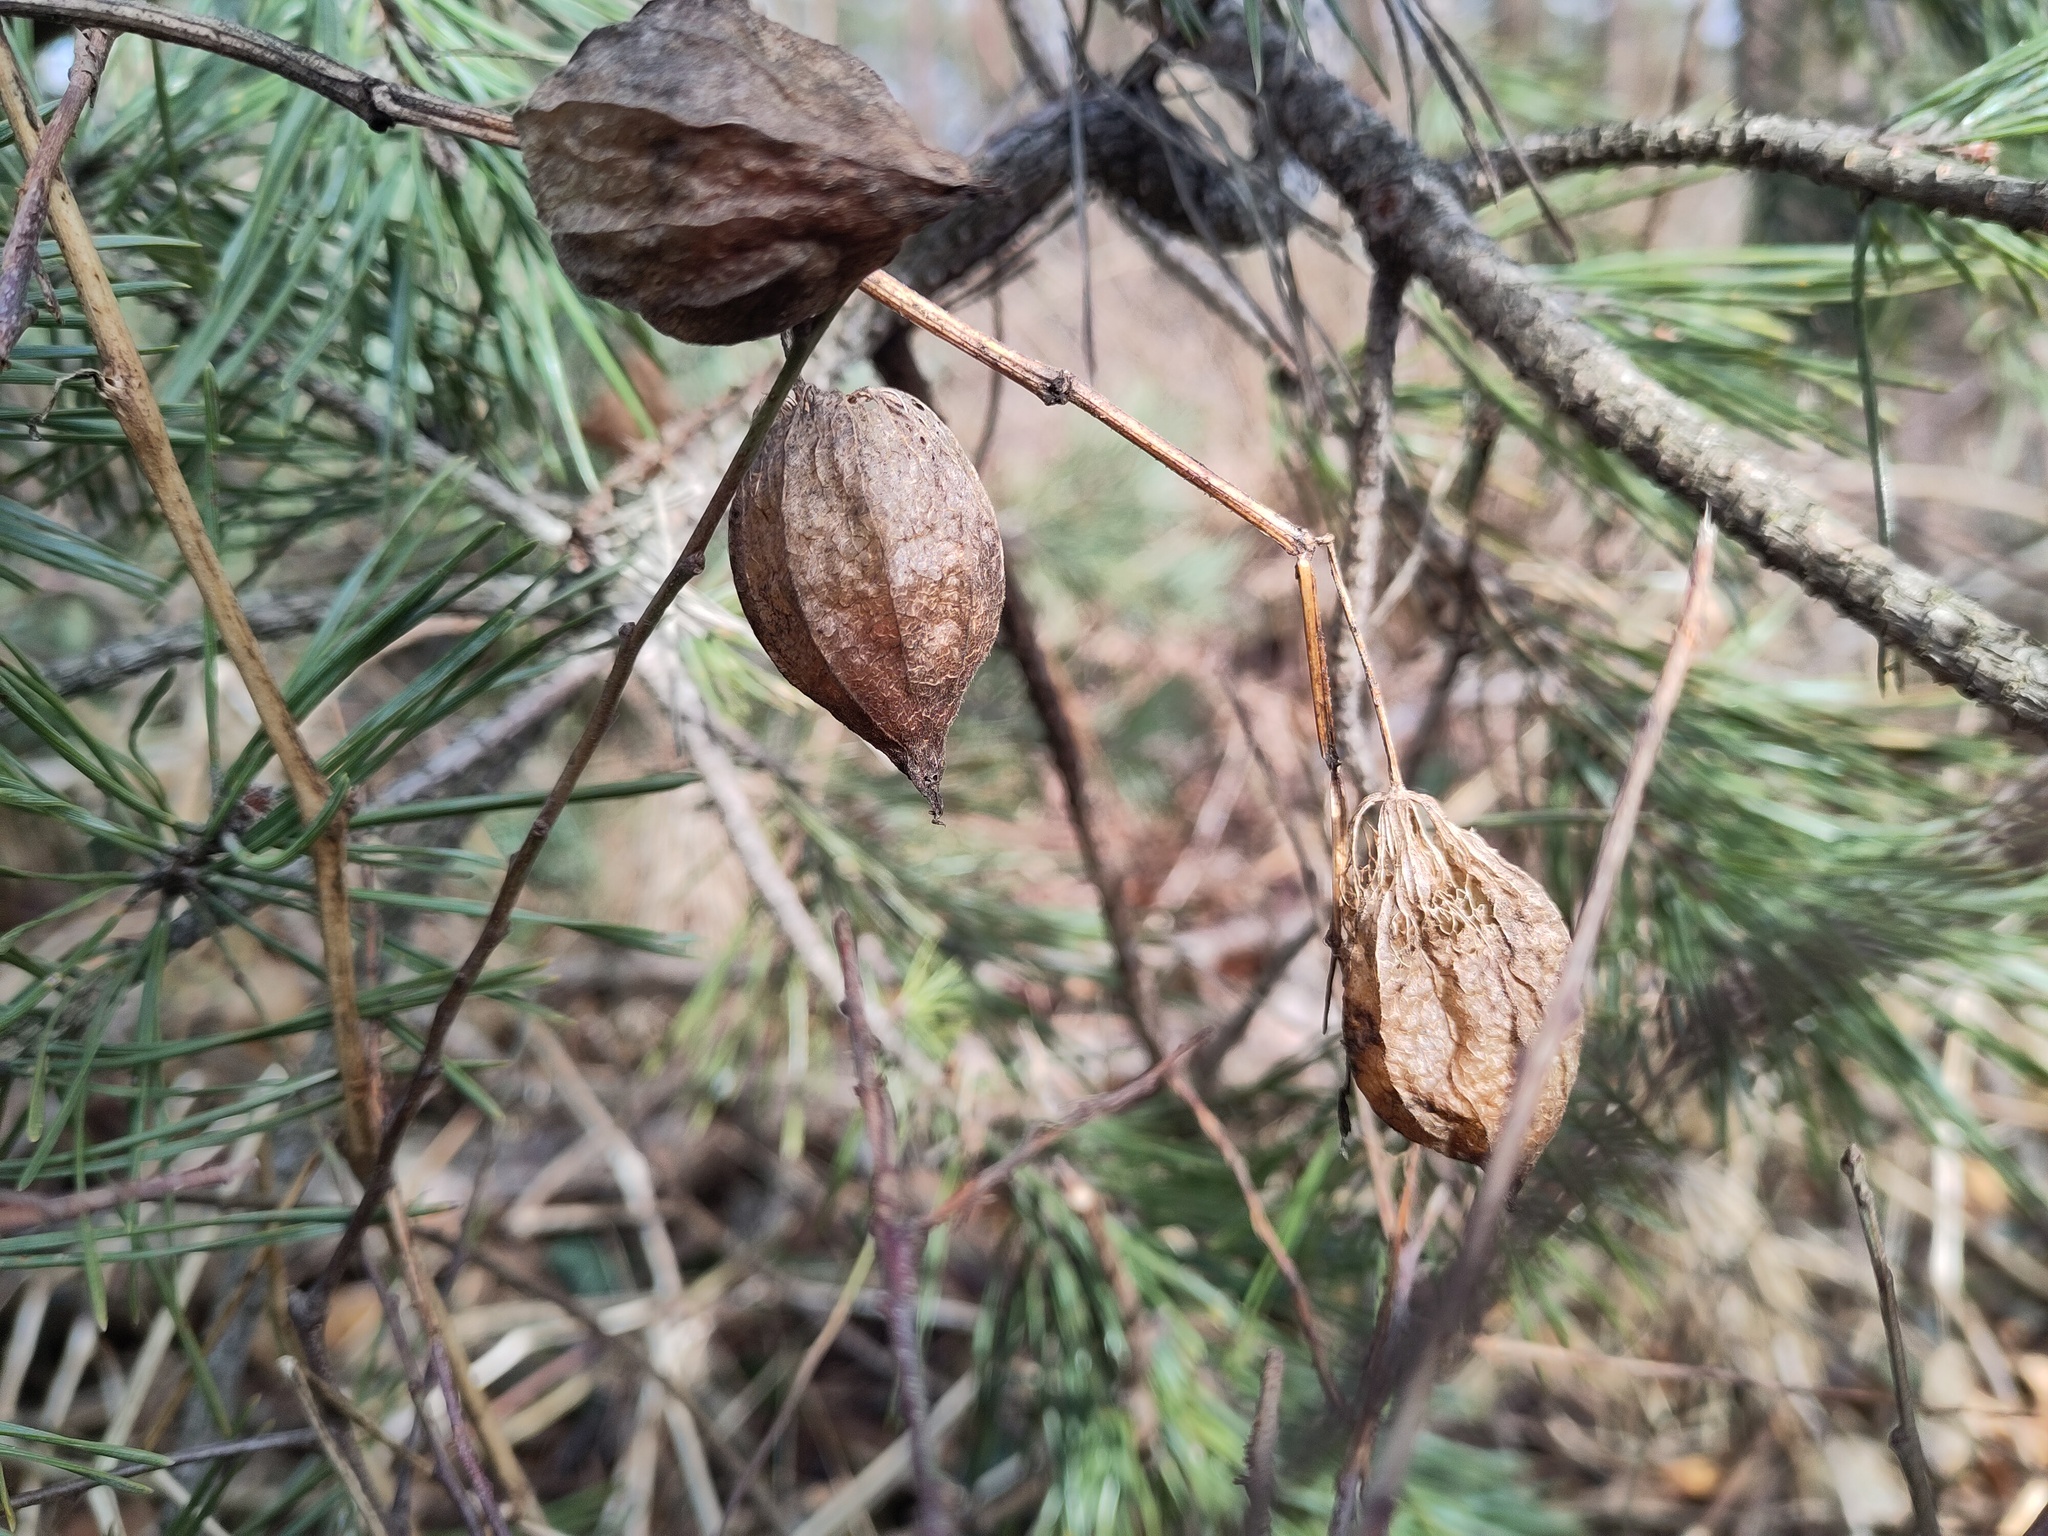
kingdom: Plantae
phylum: Tracheophyta
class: Magnoliopsida
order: Solanales
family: Solanaceae
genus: Alkekengi
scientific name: Alkekengi officinarum
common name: Japanese-lantern
